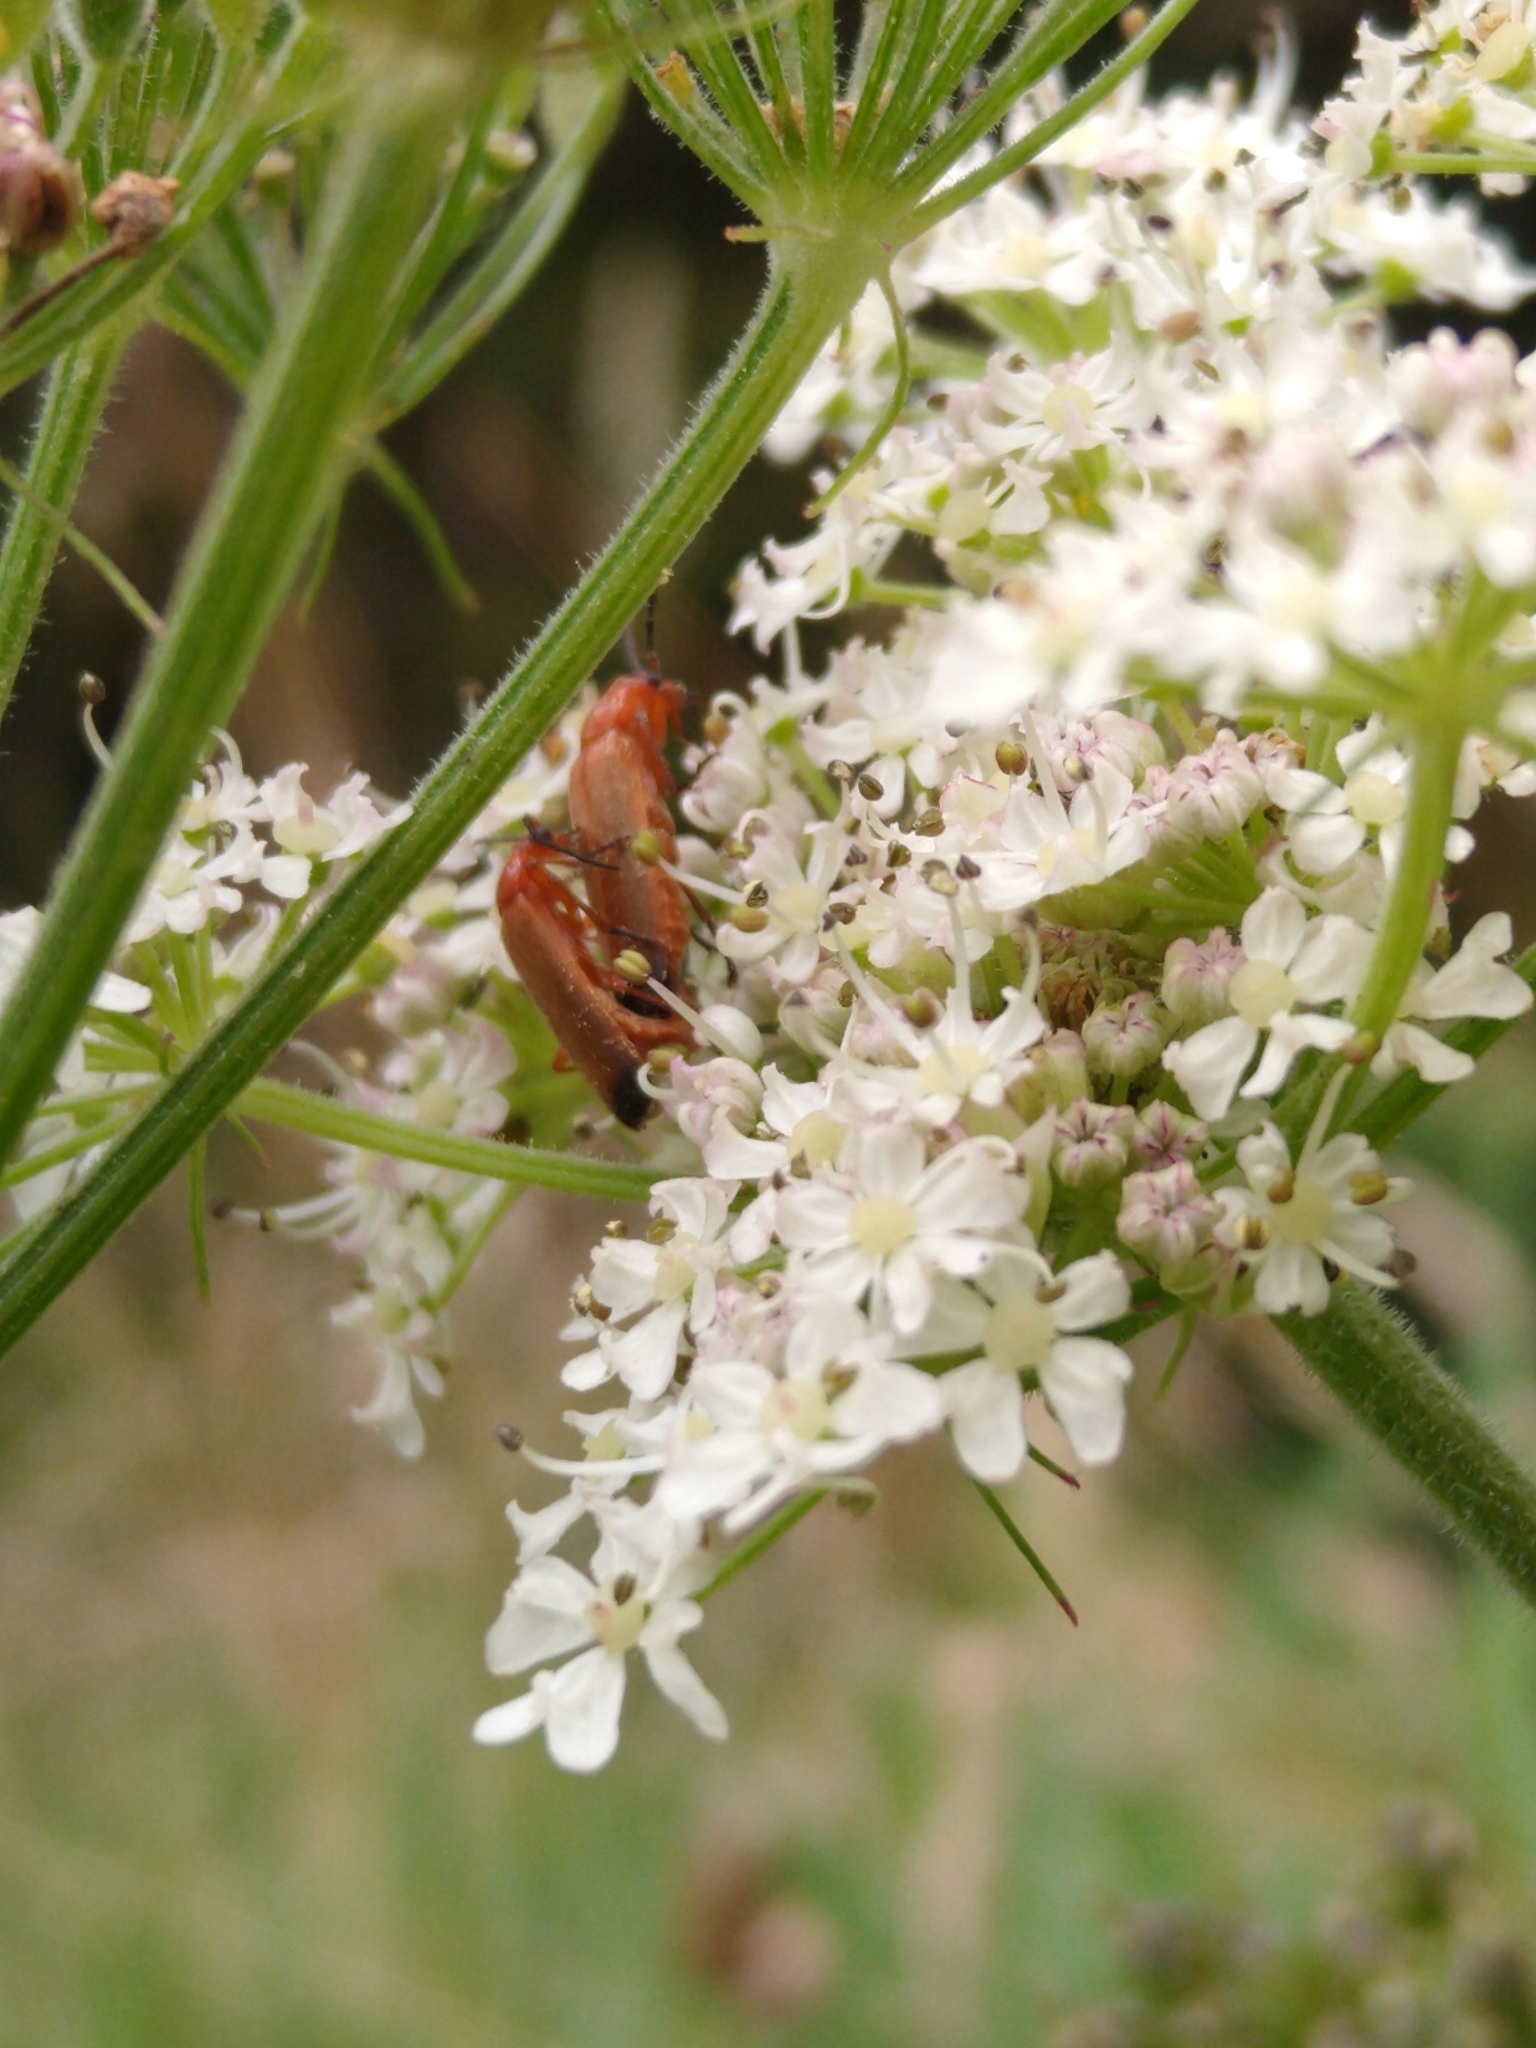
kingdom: Animalia
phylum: Arthropoda
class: Insecta
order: Coleoptera
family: Cantharidae
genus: Rhagonycha
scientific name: Rhagonycha fulva
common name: Common red soldier beetle
